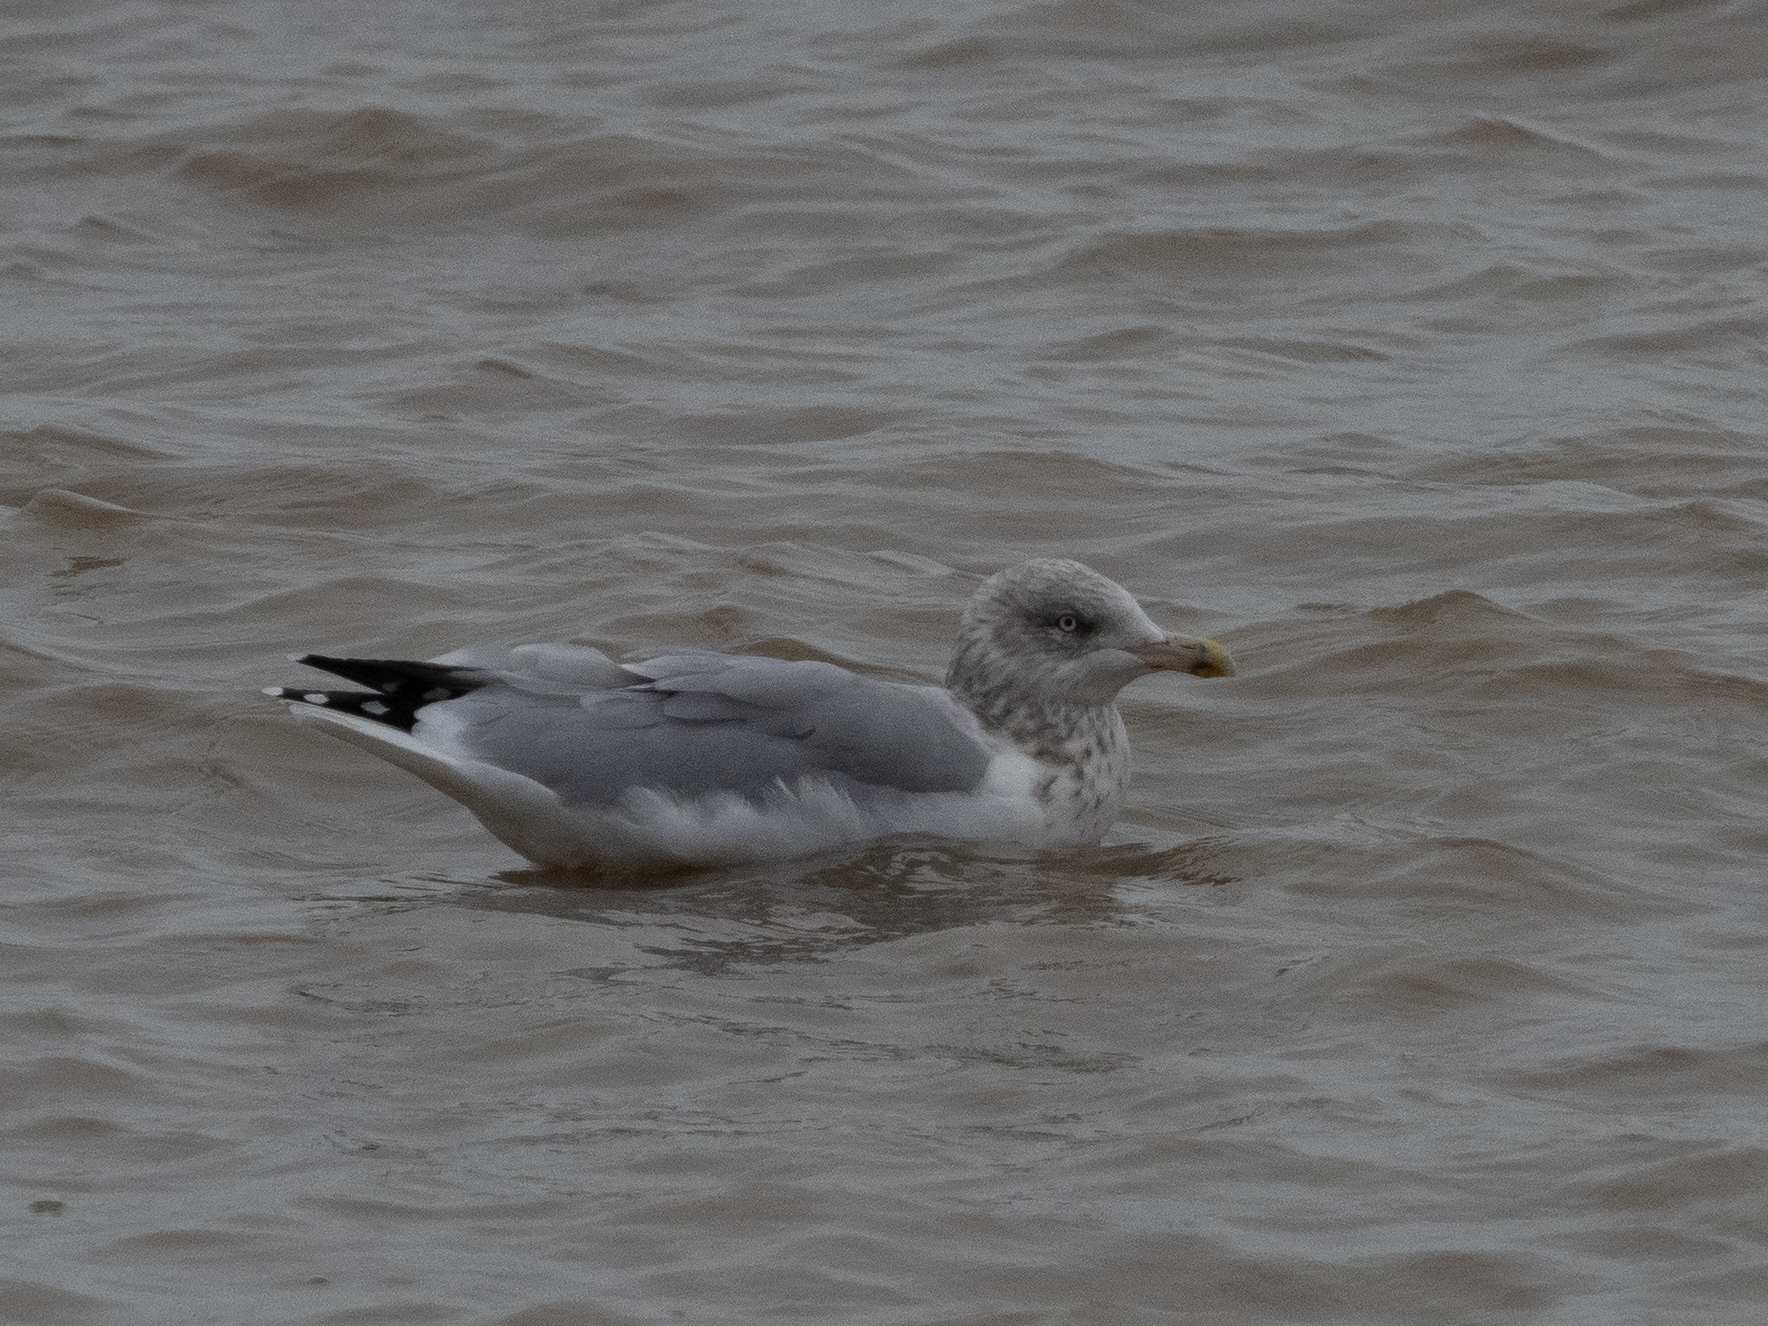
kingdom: Animalia
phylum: Chordata
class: Aves
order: Charadriiformes
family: Laridae
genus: Larus
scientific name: Larus argentatus
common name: Herring gull
